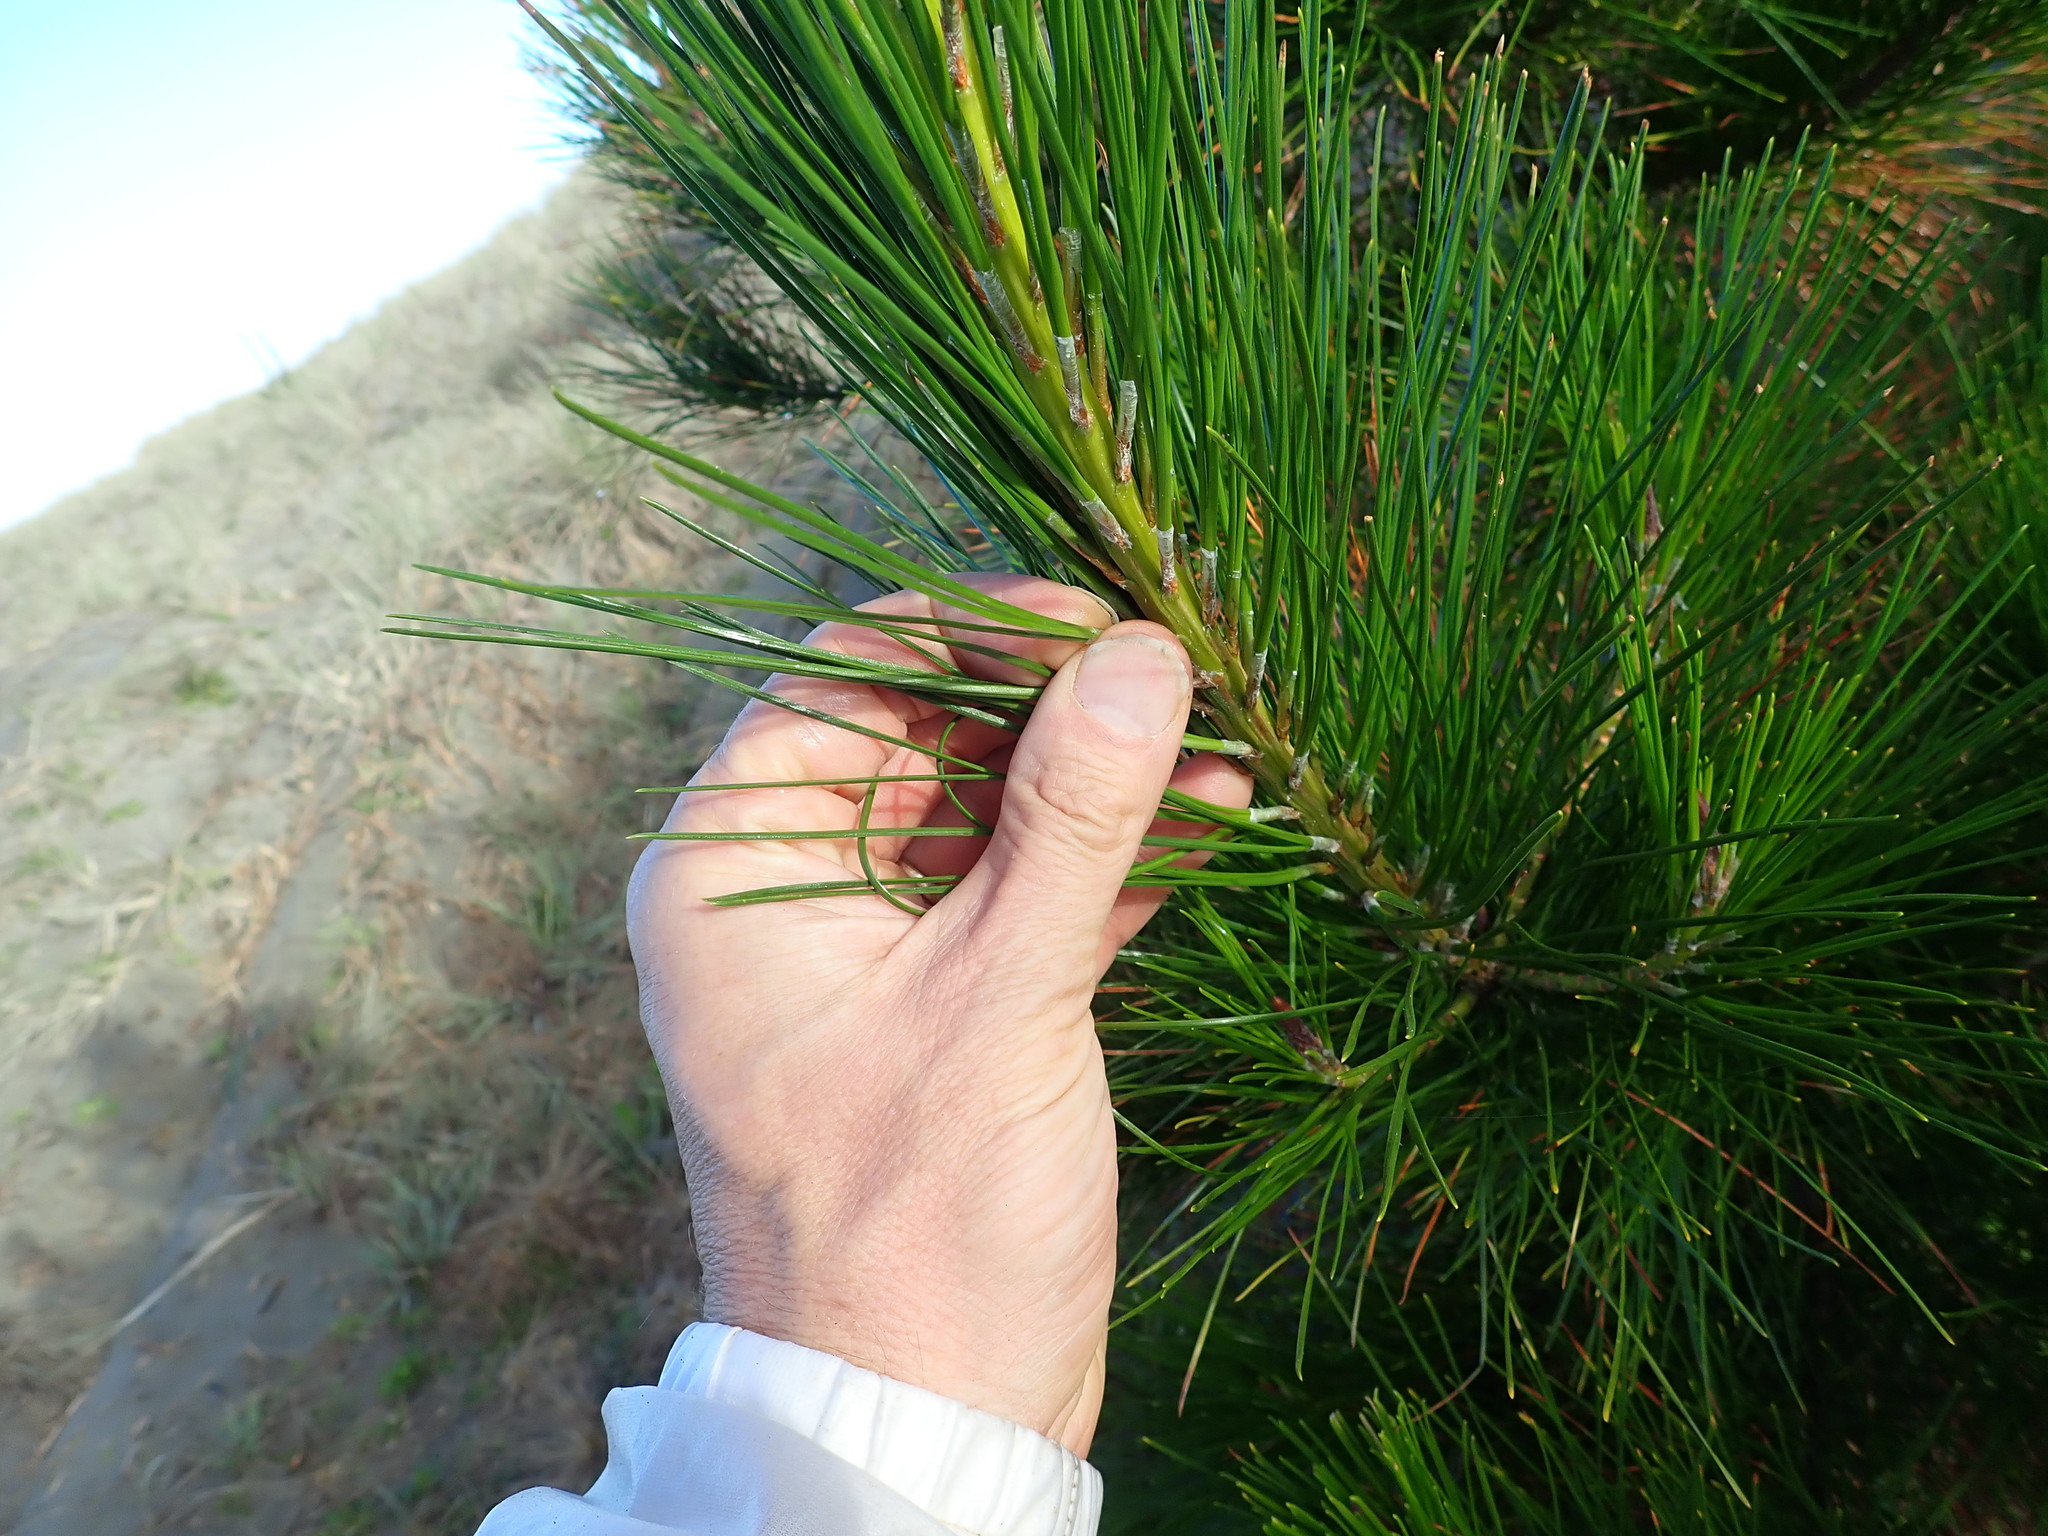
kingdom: Plantae
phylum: Tracheophyta
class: Pinopsida
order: Pinales
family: Pinaceae
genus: Pinus
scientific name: Pinus radiata
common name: Monterey pine
